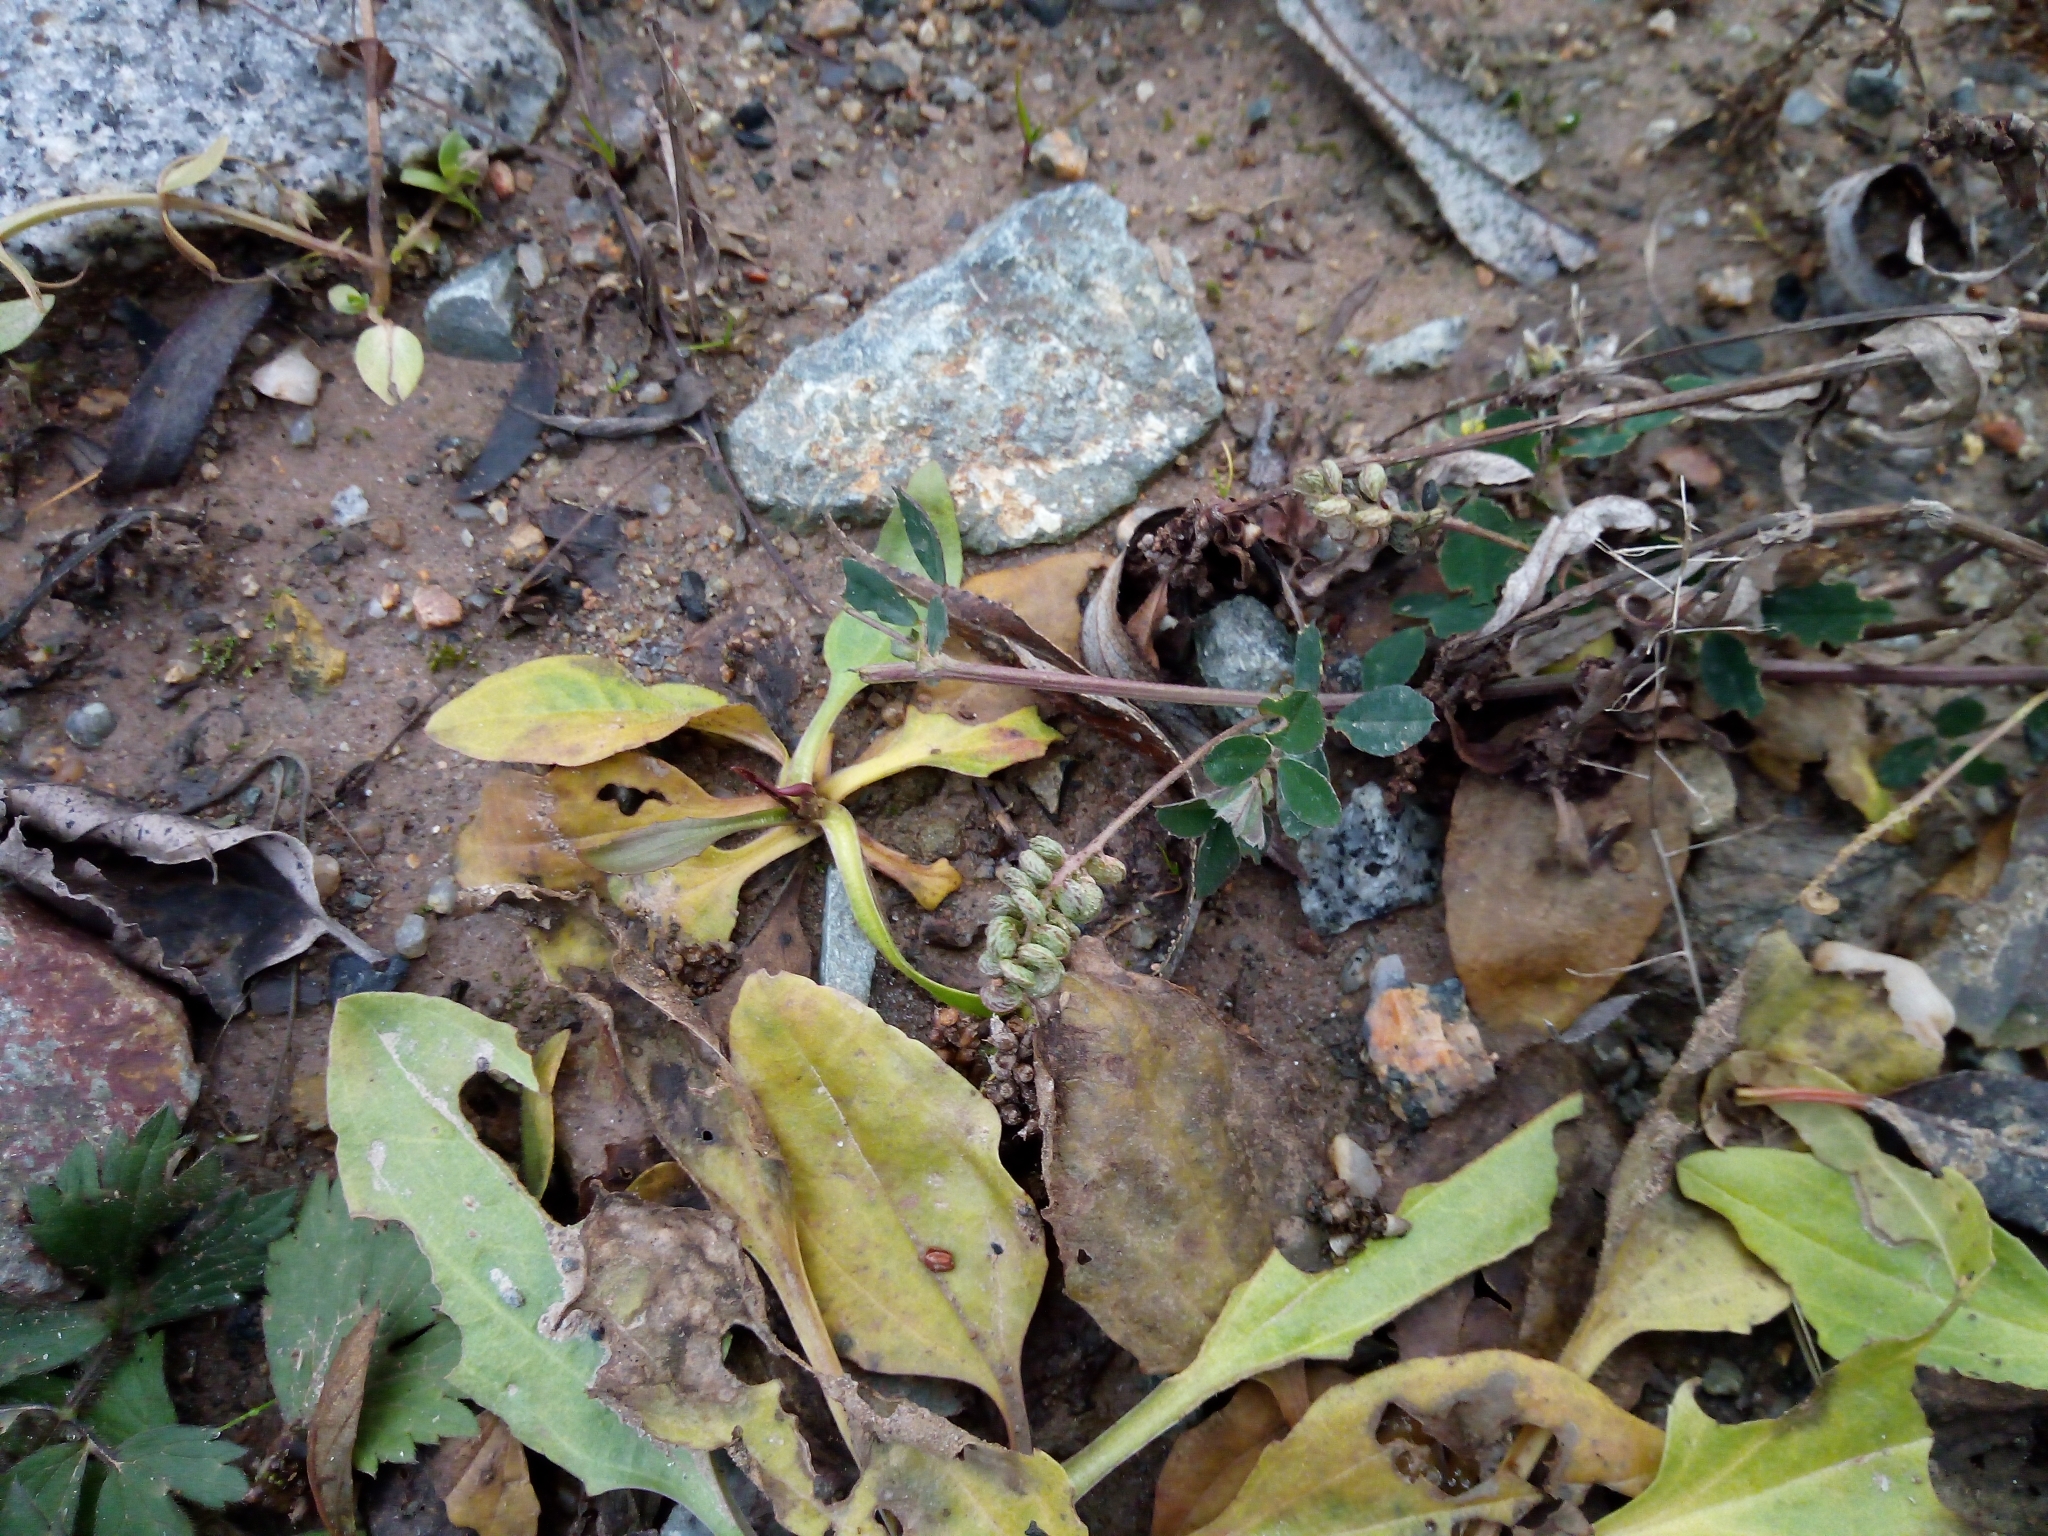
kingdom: Plantae
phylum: Tracheophyta
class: Magnoliopsida
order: Fabales
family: Fabaceae
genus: Medicago
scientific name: Medicago lupulina
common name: Black medick
